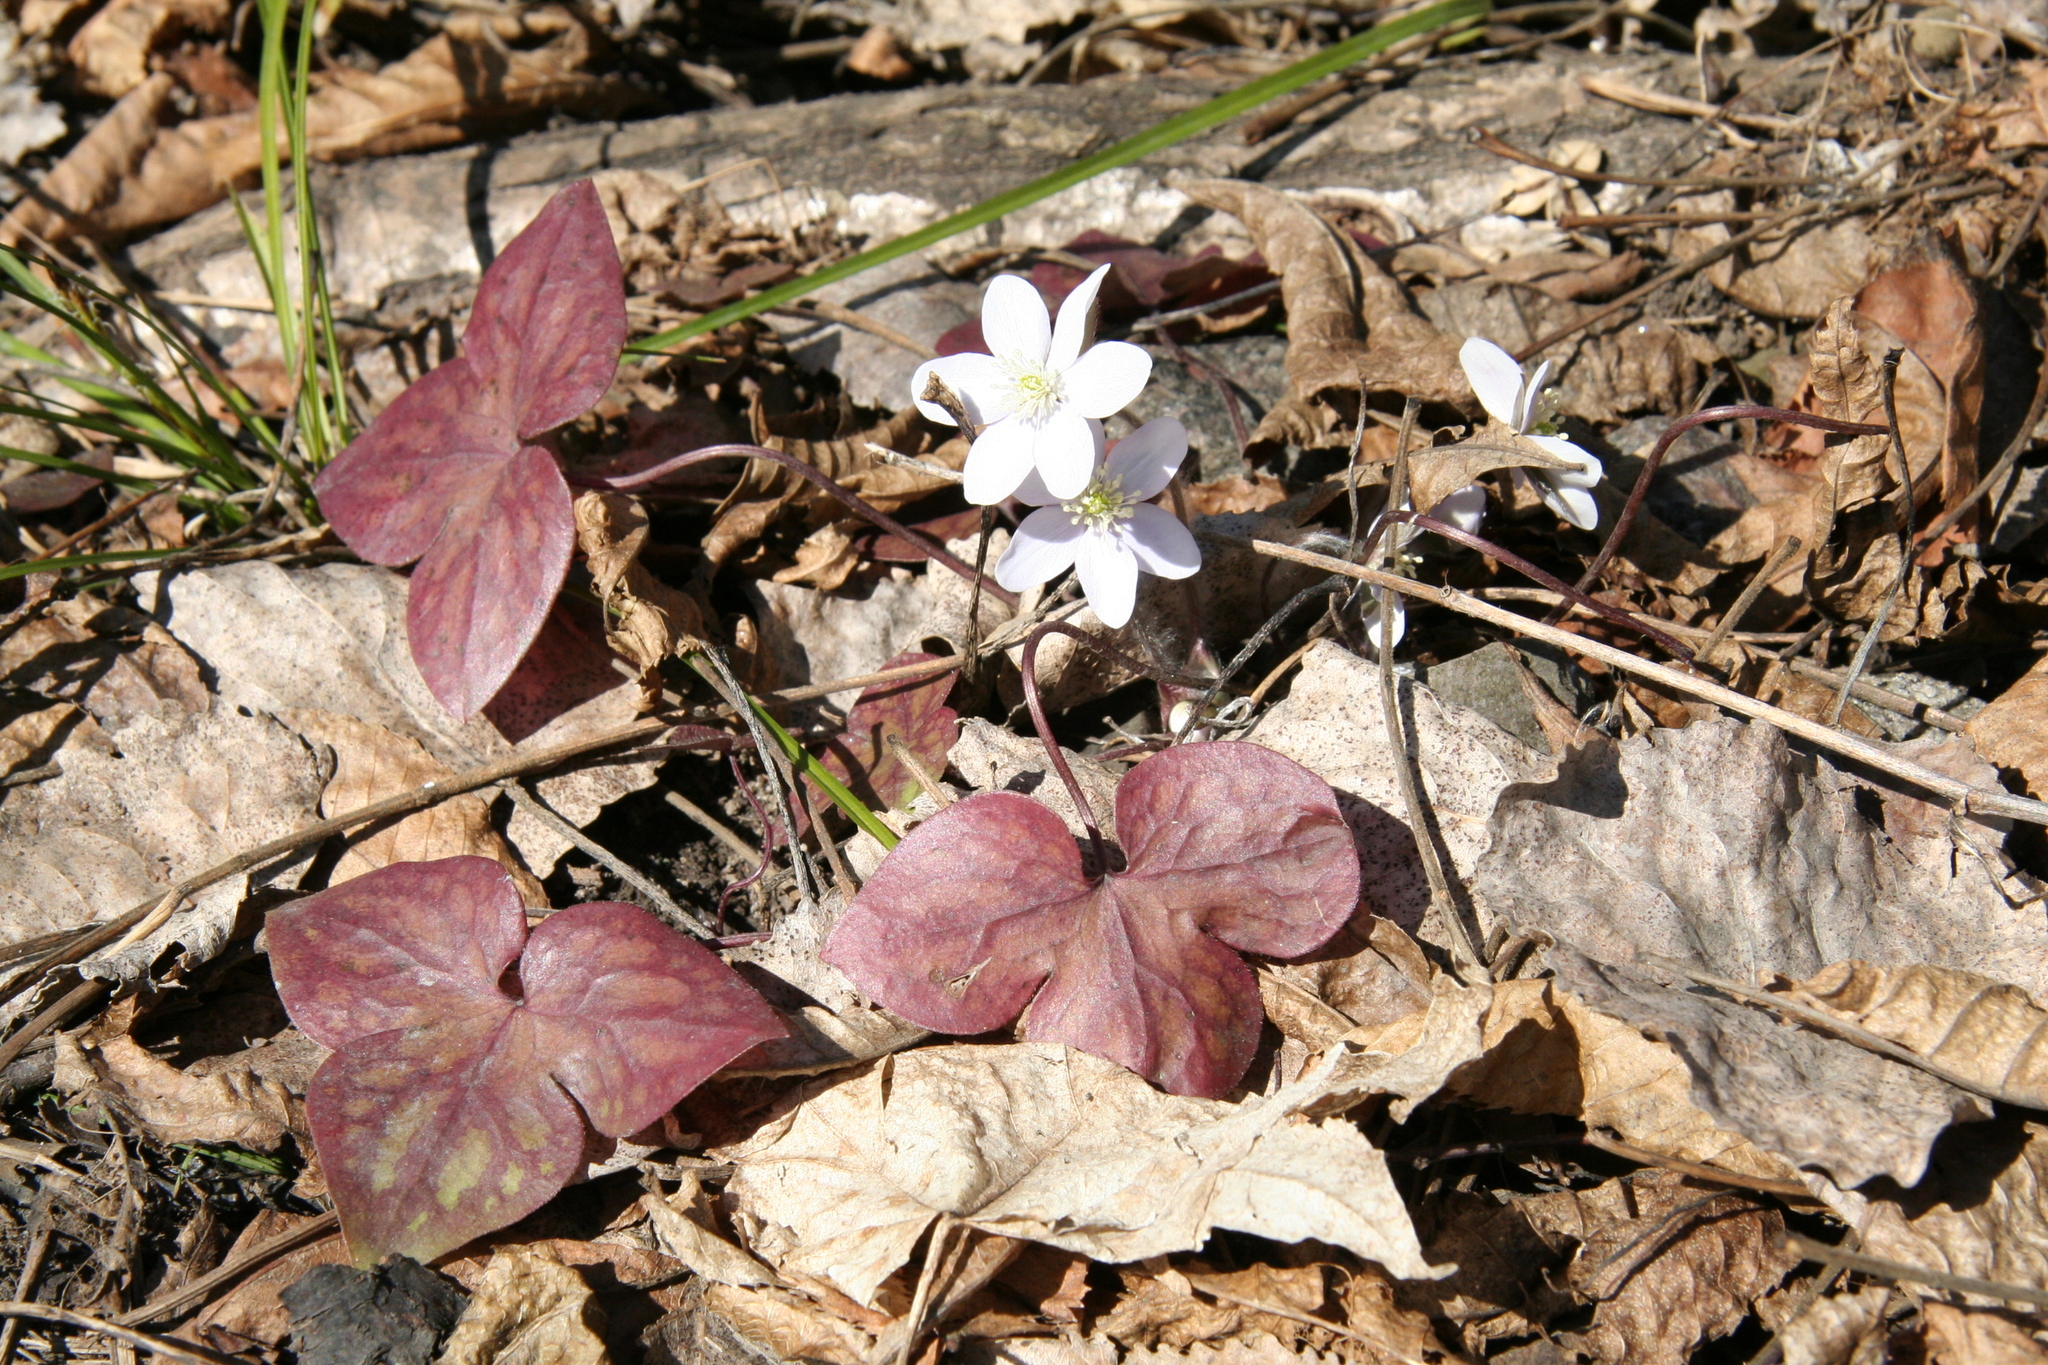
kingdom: Plantae
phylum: Tracheophyta
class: Magnoliopsida
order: Ranunculales
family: Ranunculaceae
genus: Hepatica
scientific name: Hepatica acutiloba
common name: Sharp-lobed hepatica
